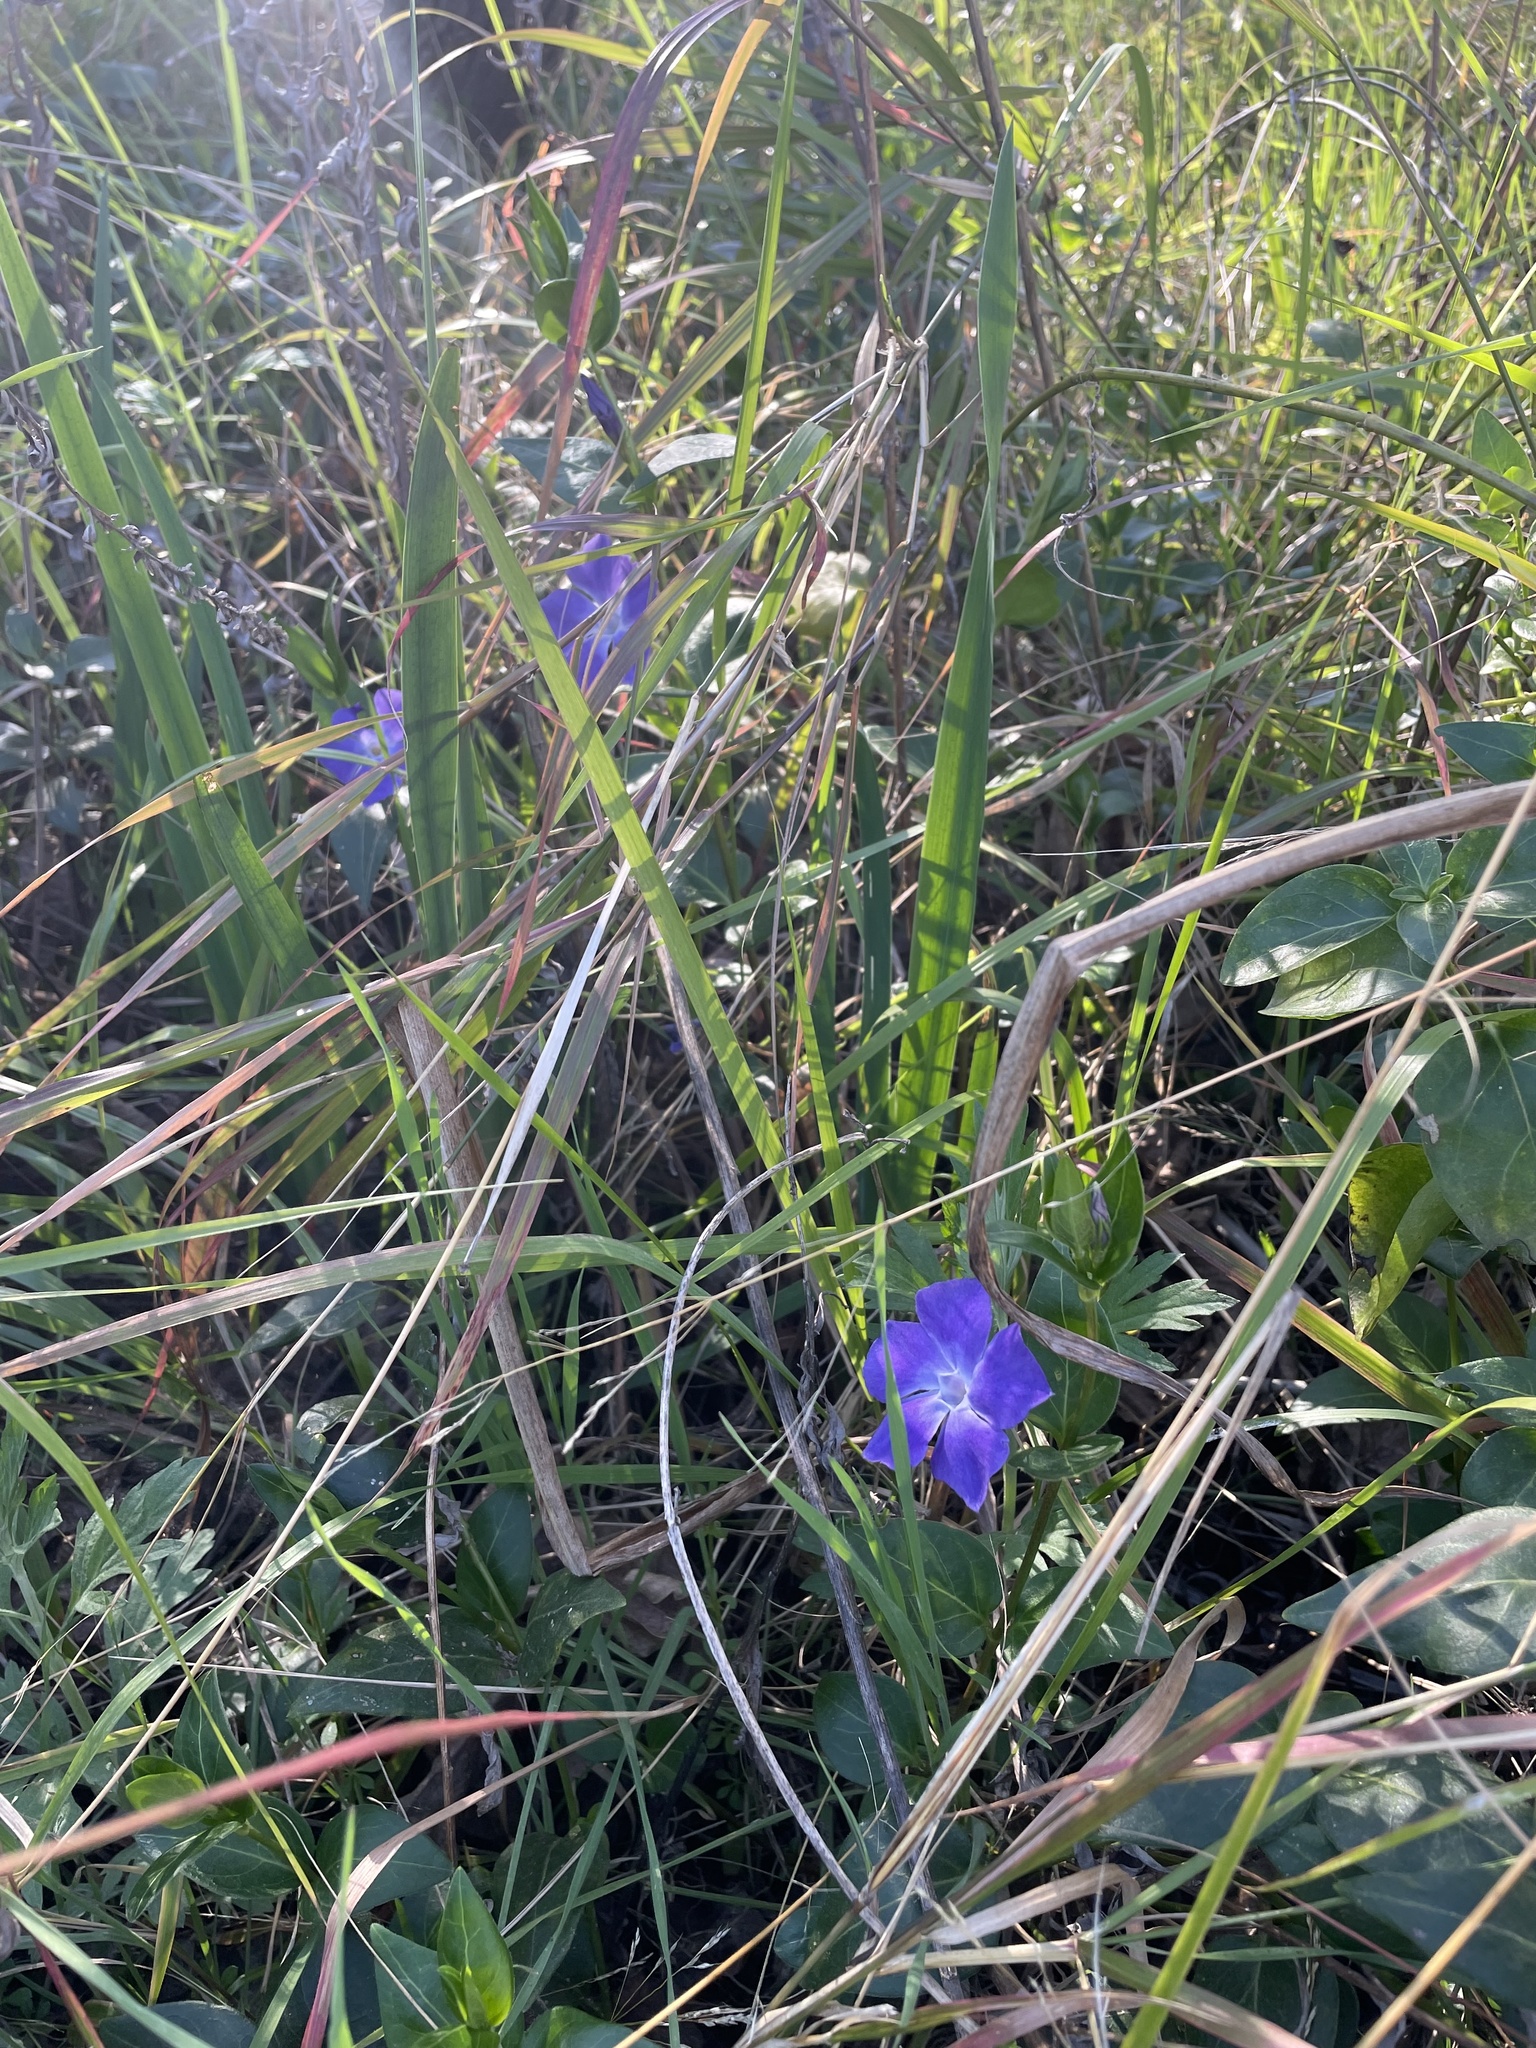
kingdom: Plantae
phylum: Tracheophyta
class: Magnoliopsida
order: Gentianales
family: Apocynaceae
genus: Vinca
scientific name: Vinca major
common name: Greater periwinkle
